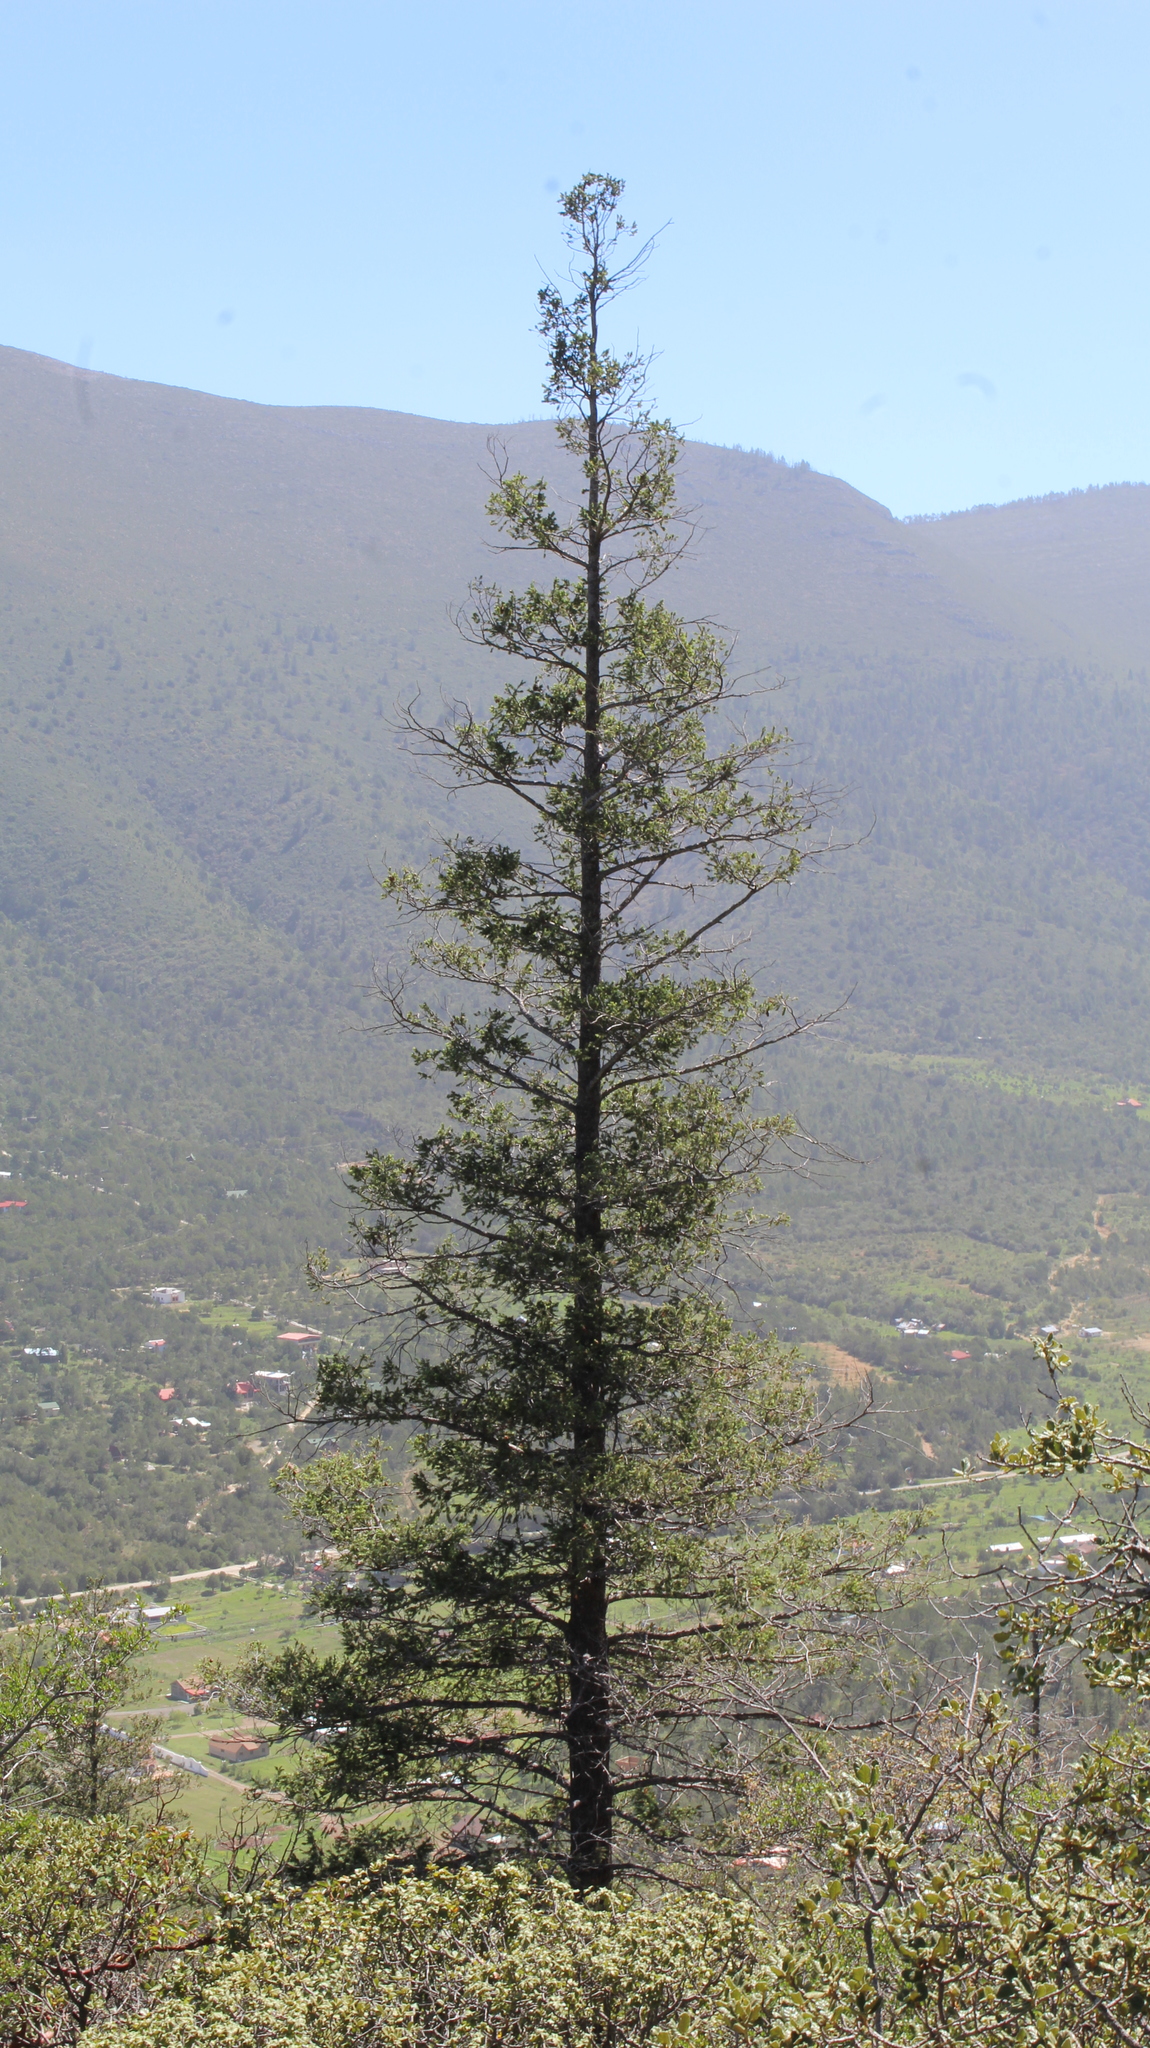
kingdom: Plantae
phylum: Tracheophyta
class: Pinopsida
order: Pinales
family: Pinaceae
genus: Pseudotsuga
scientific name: Pseudotsuga menziesii
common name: Douglas fir
